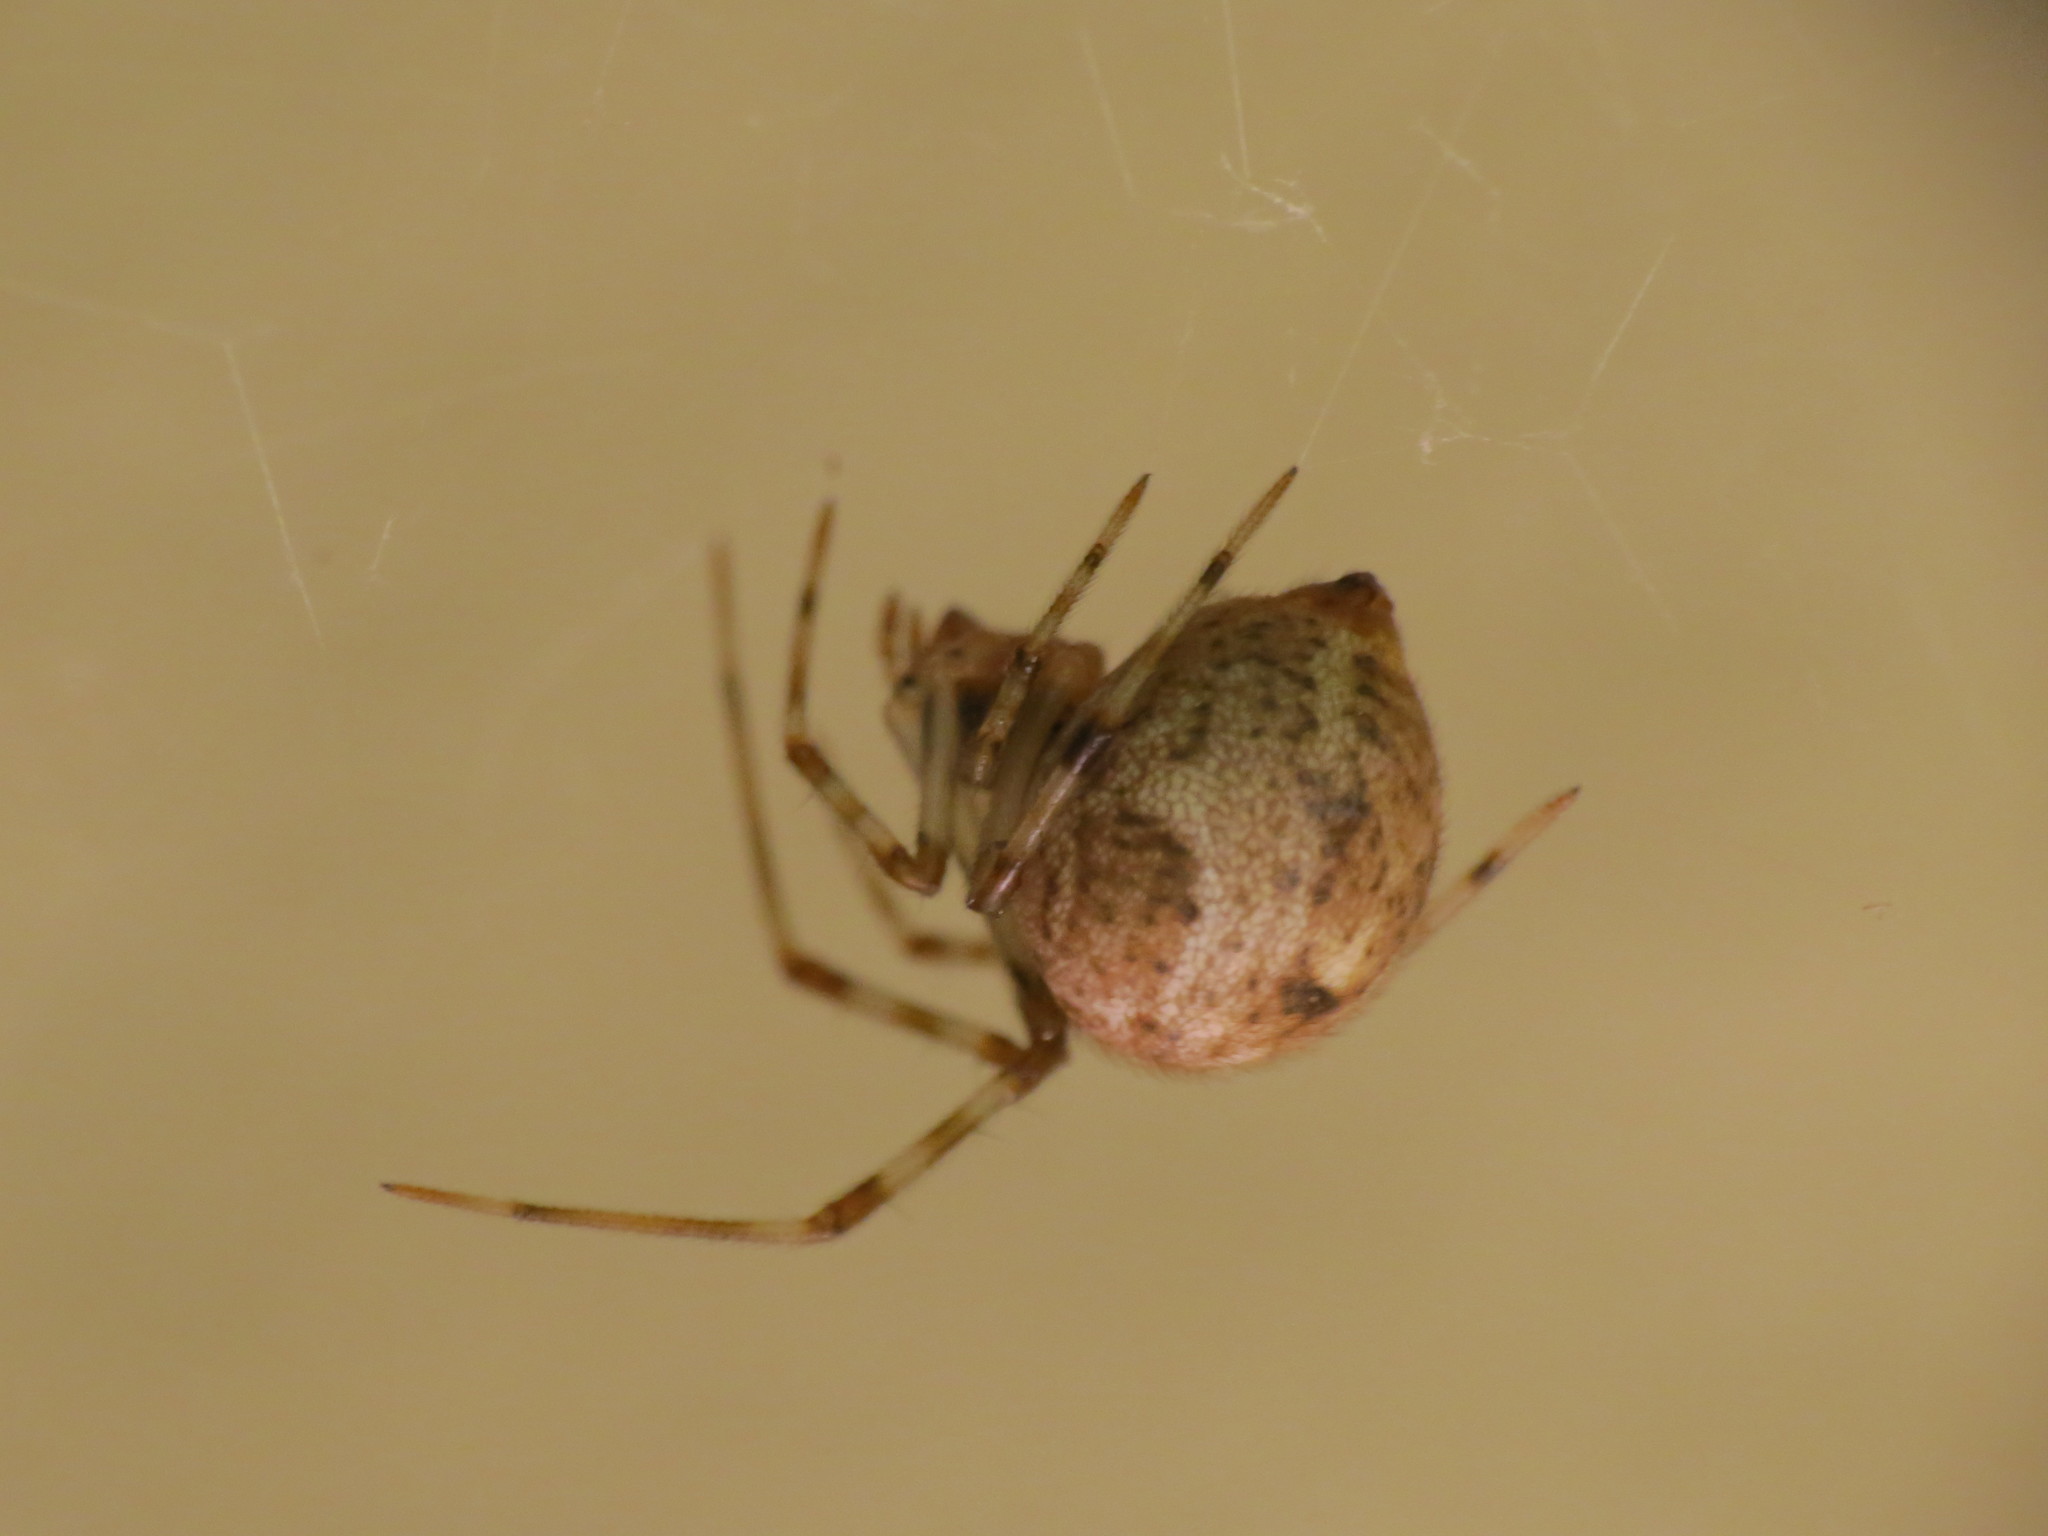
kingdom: Animalia
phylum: Arthropoda
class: Arachnida
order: Araneae
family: Theridiidae
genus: Parasteatoda
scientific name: Parasteatoda tepidariorum
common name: Common house spider
